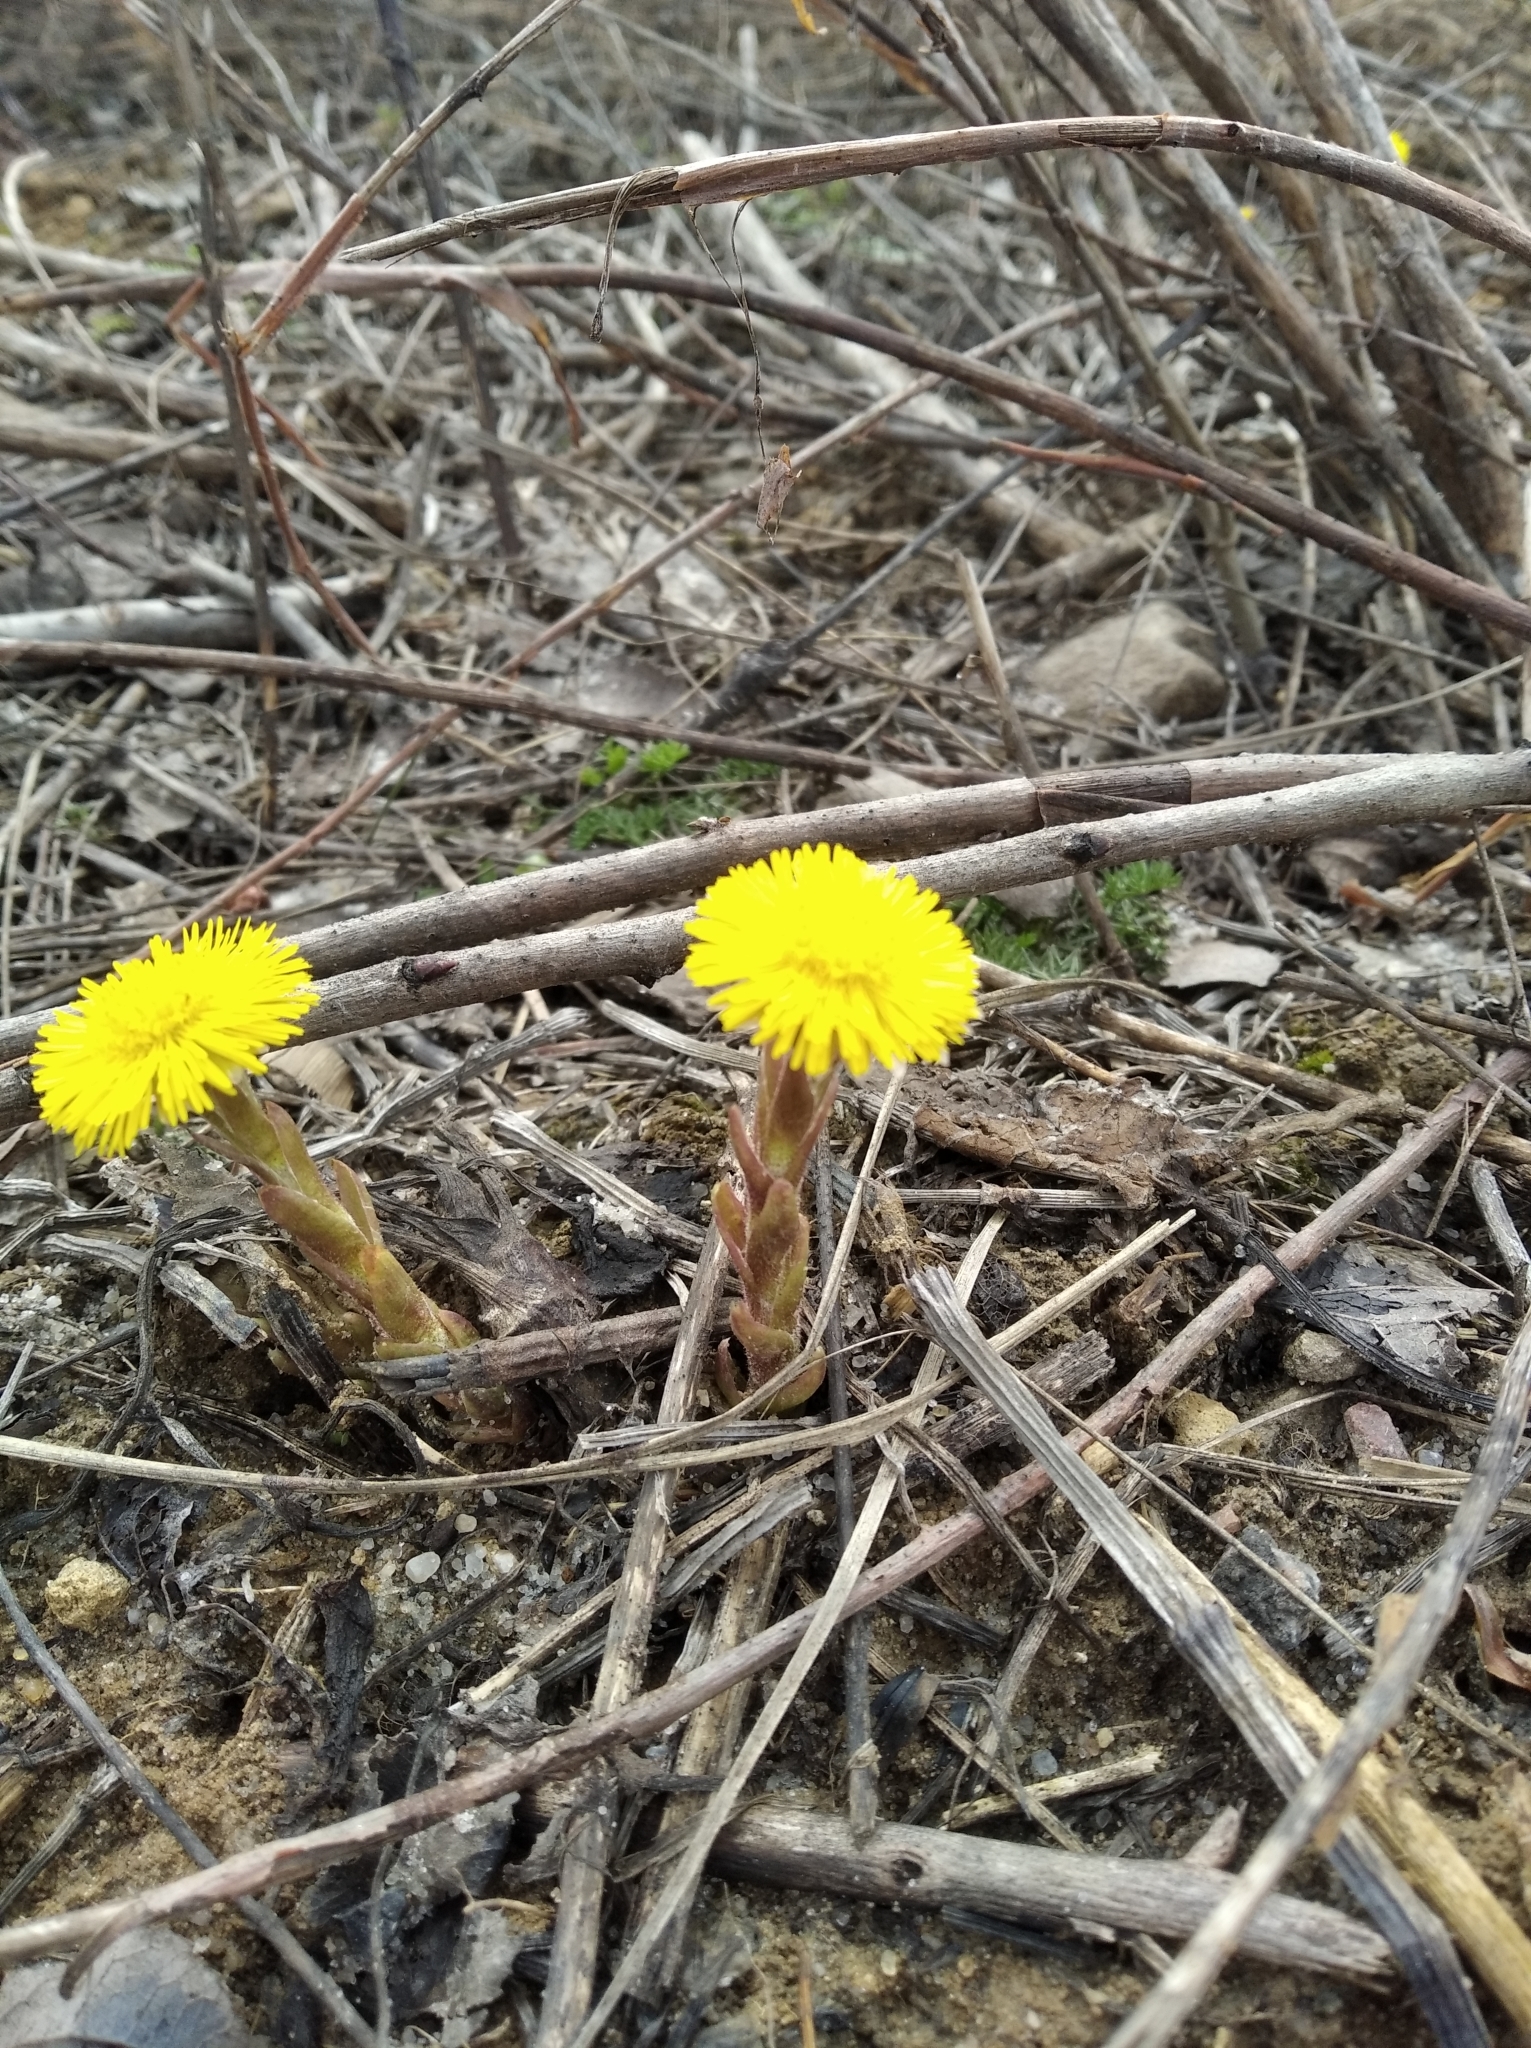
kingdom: Plantae
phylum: Tracheophyta
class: Magnoliopsida
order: Asterales
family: Asteraceae
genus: Tussilago
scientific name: Tussilago farfara
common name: Coltsfoot
